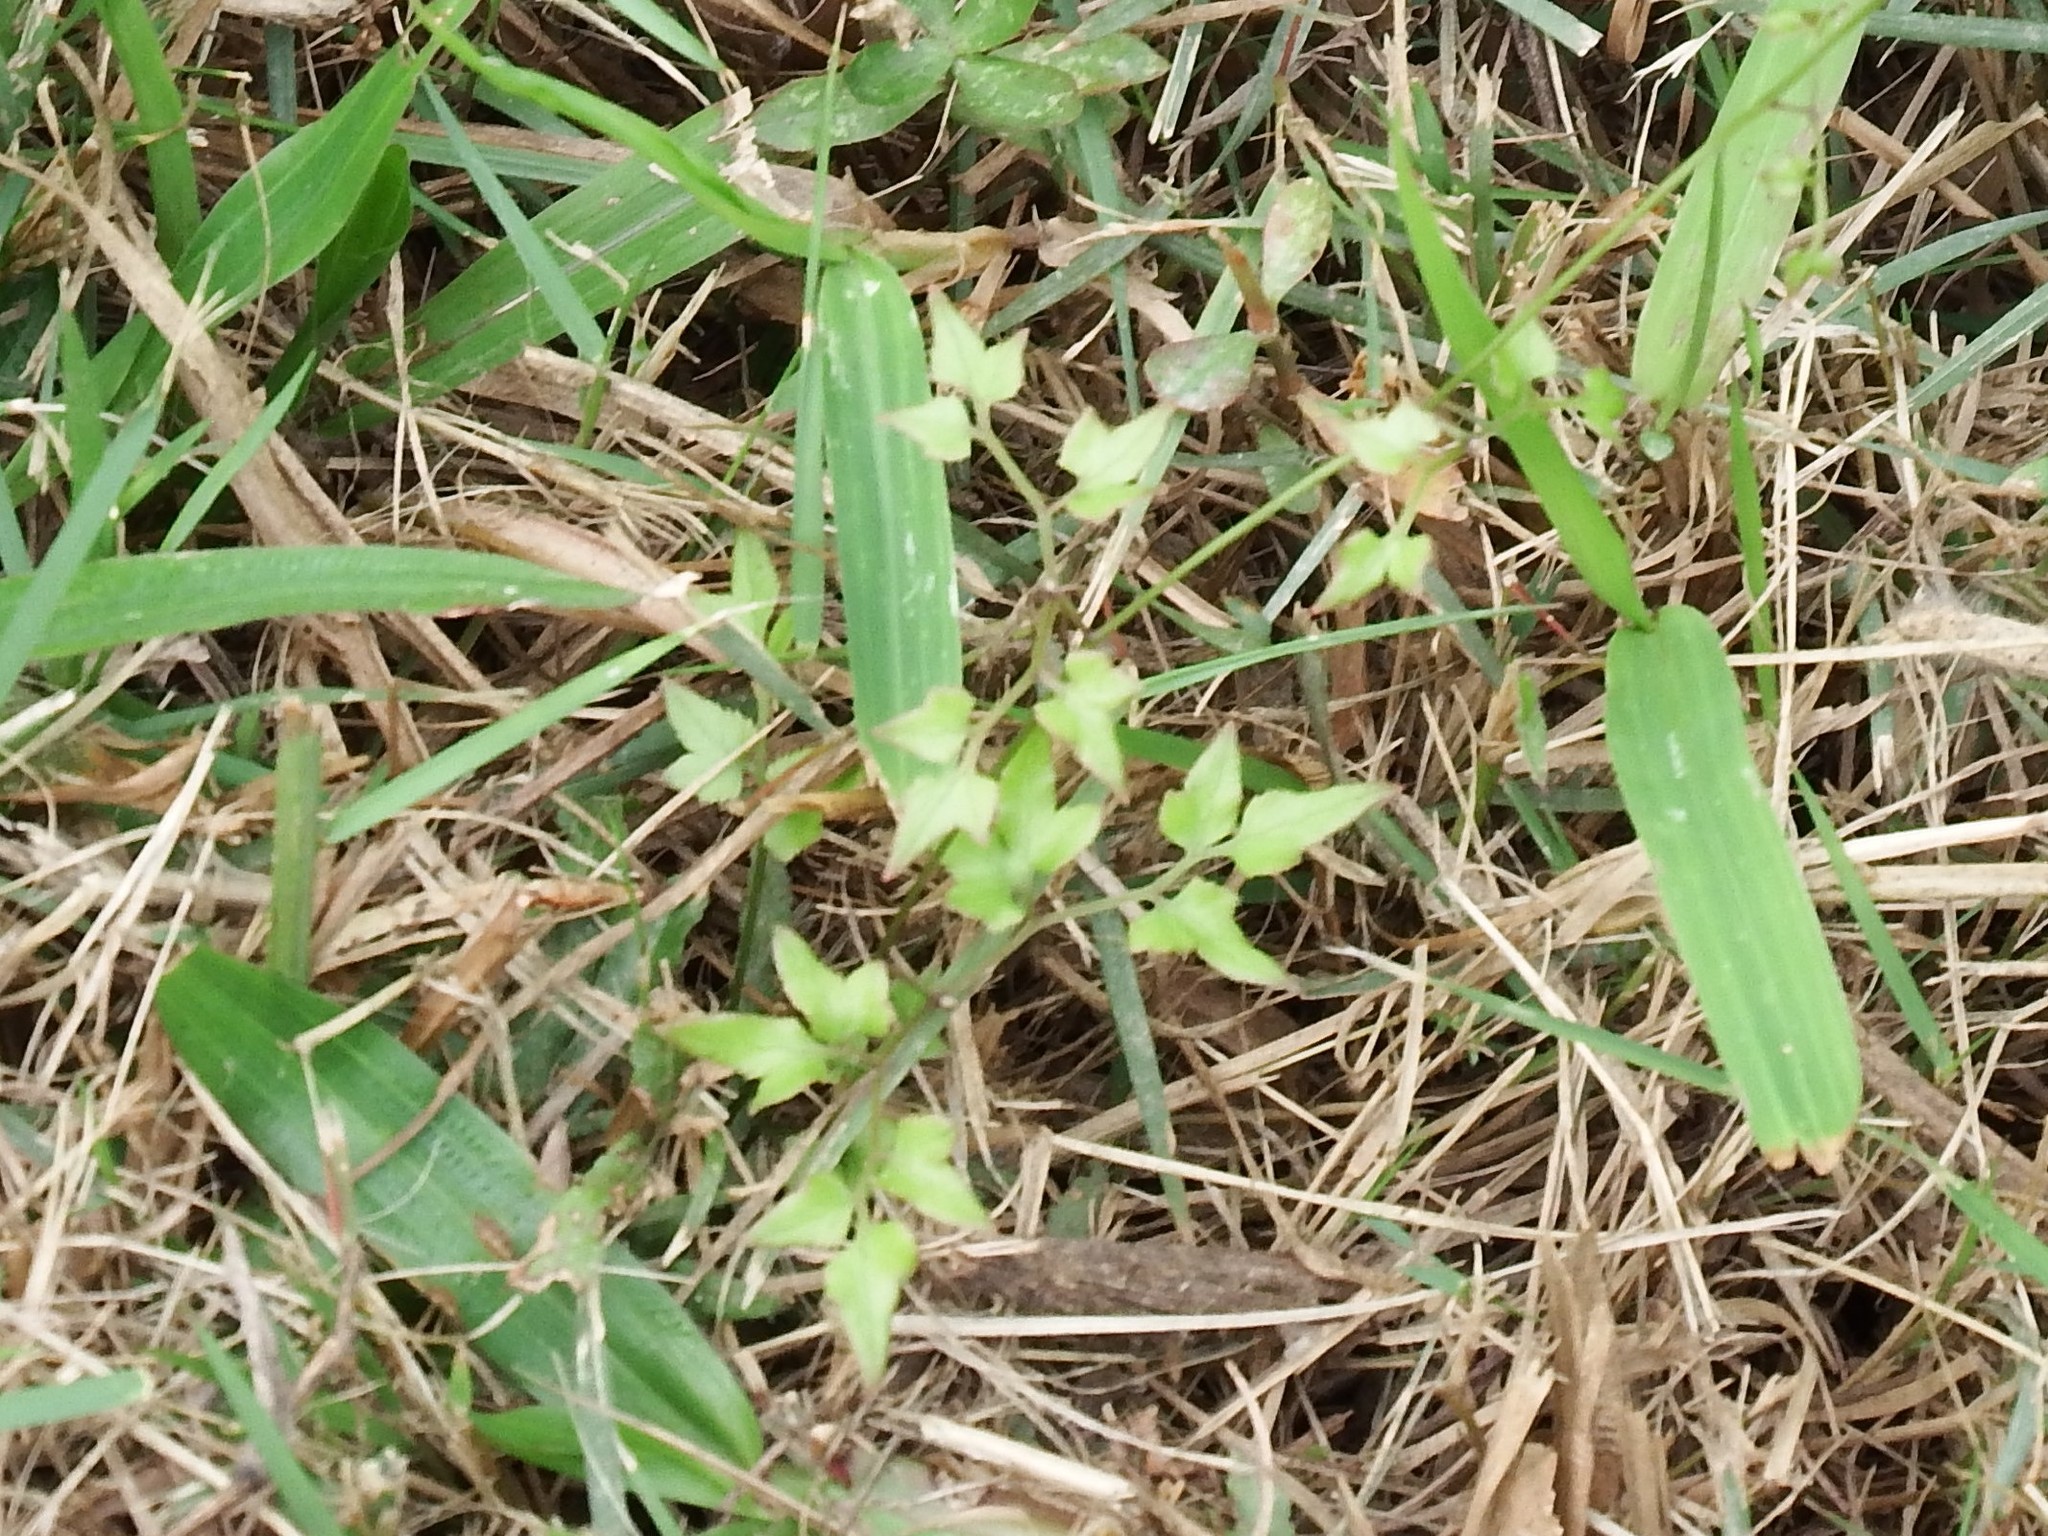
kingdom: Plantae
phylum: Tracheophyta
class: Magnoliopsida
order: Ranunculales
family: Ranunculaceae
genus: Clematis
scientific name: Clematis grata
